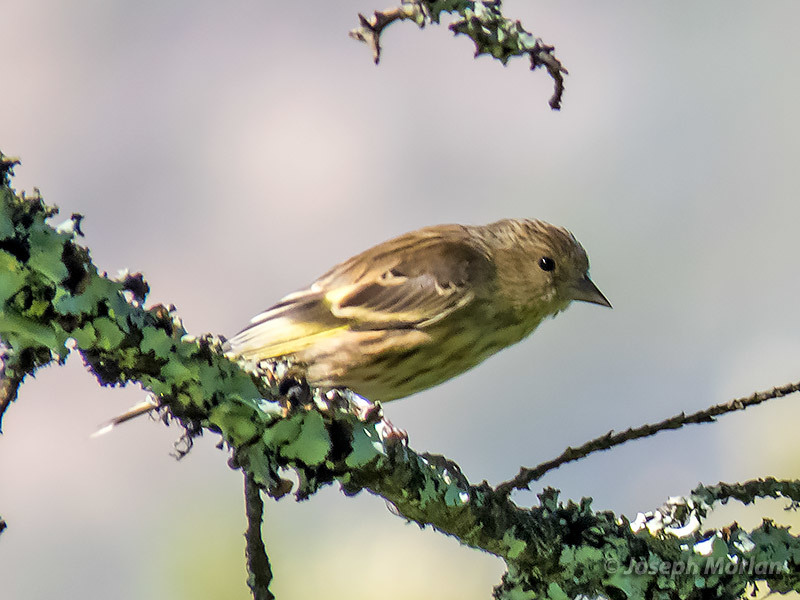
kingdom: Animalia
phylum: Chordata
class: Aves
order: Passeriformes
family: Fringillidae
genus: Spinus
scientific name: Spinus pinus
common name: Pine siskin
